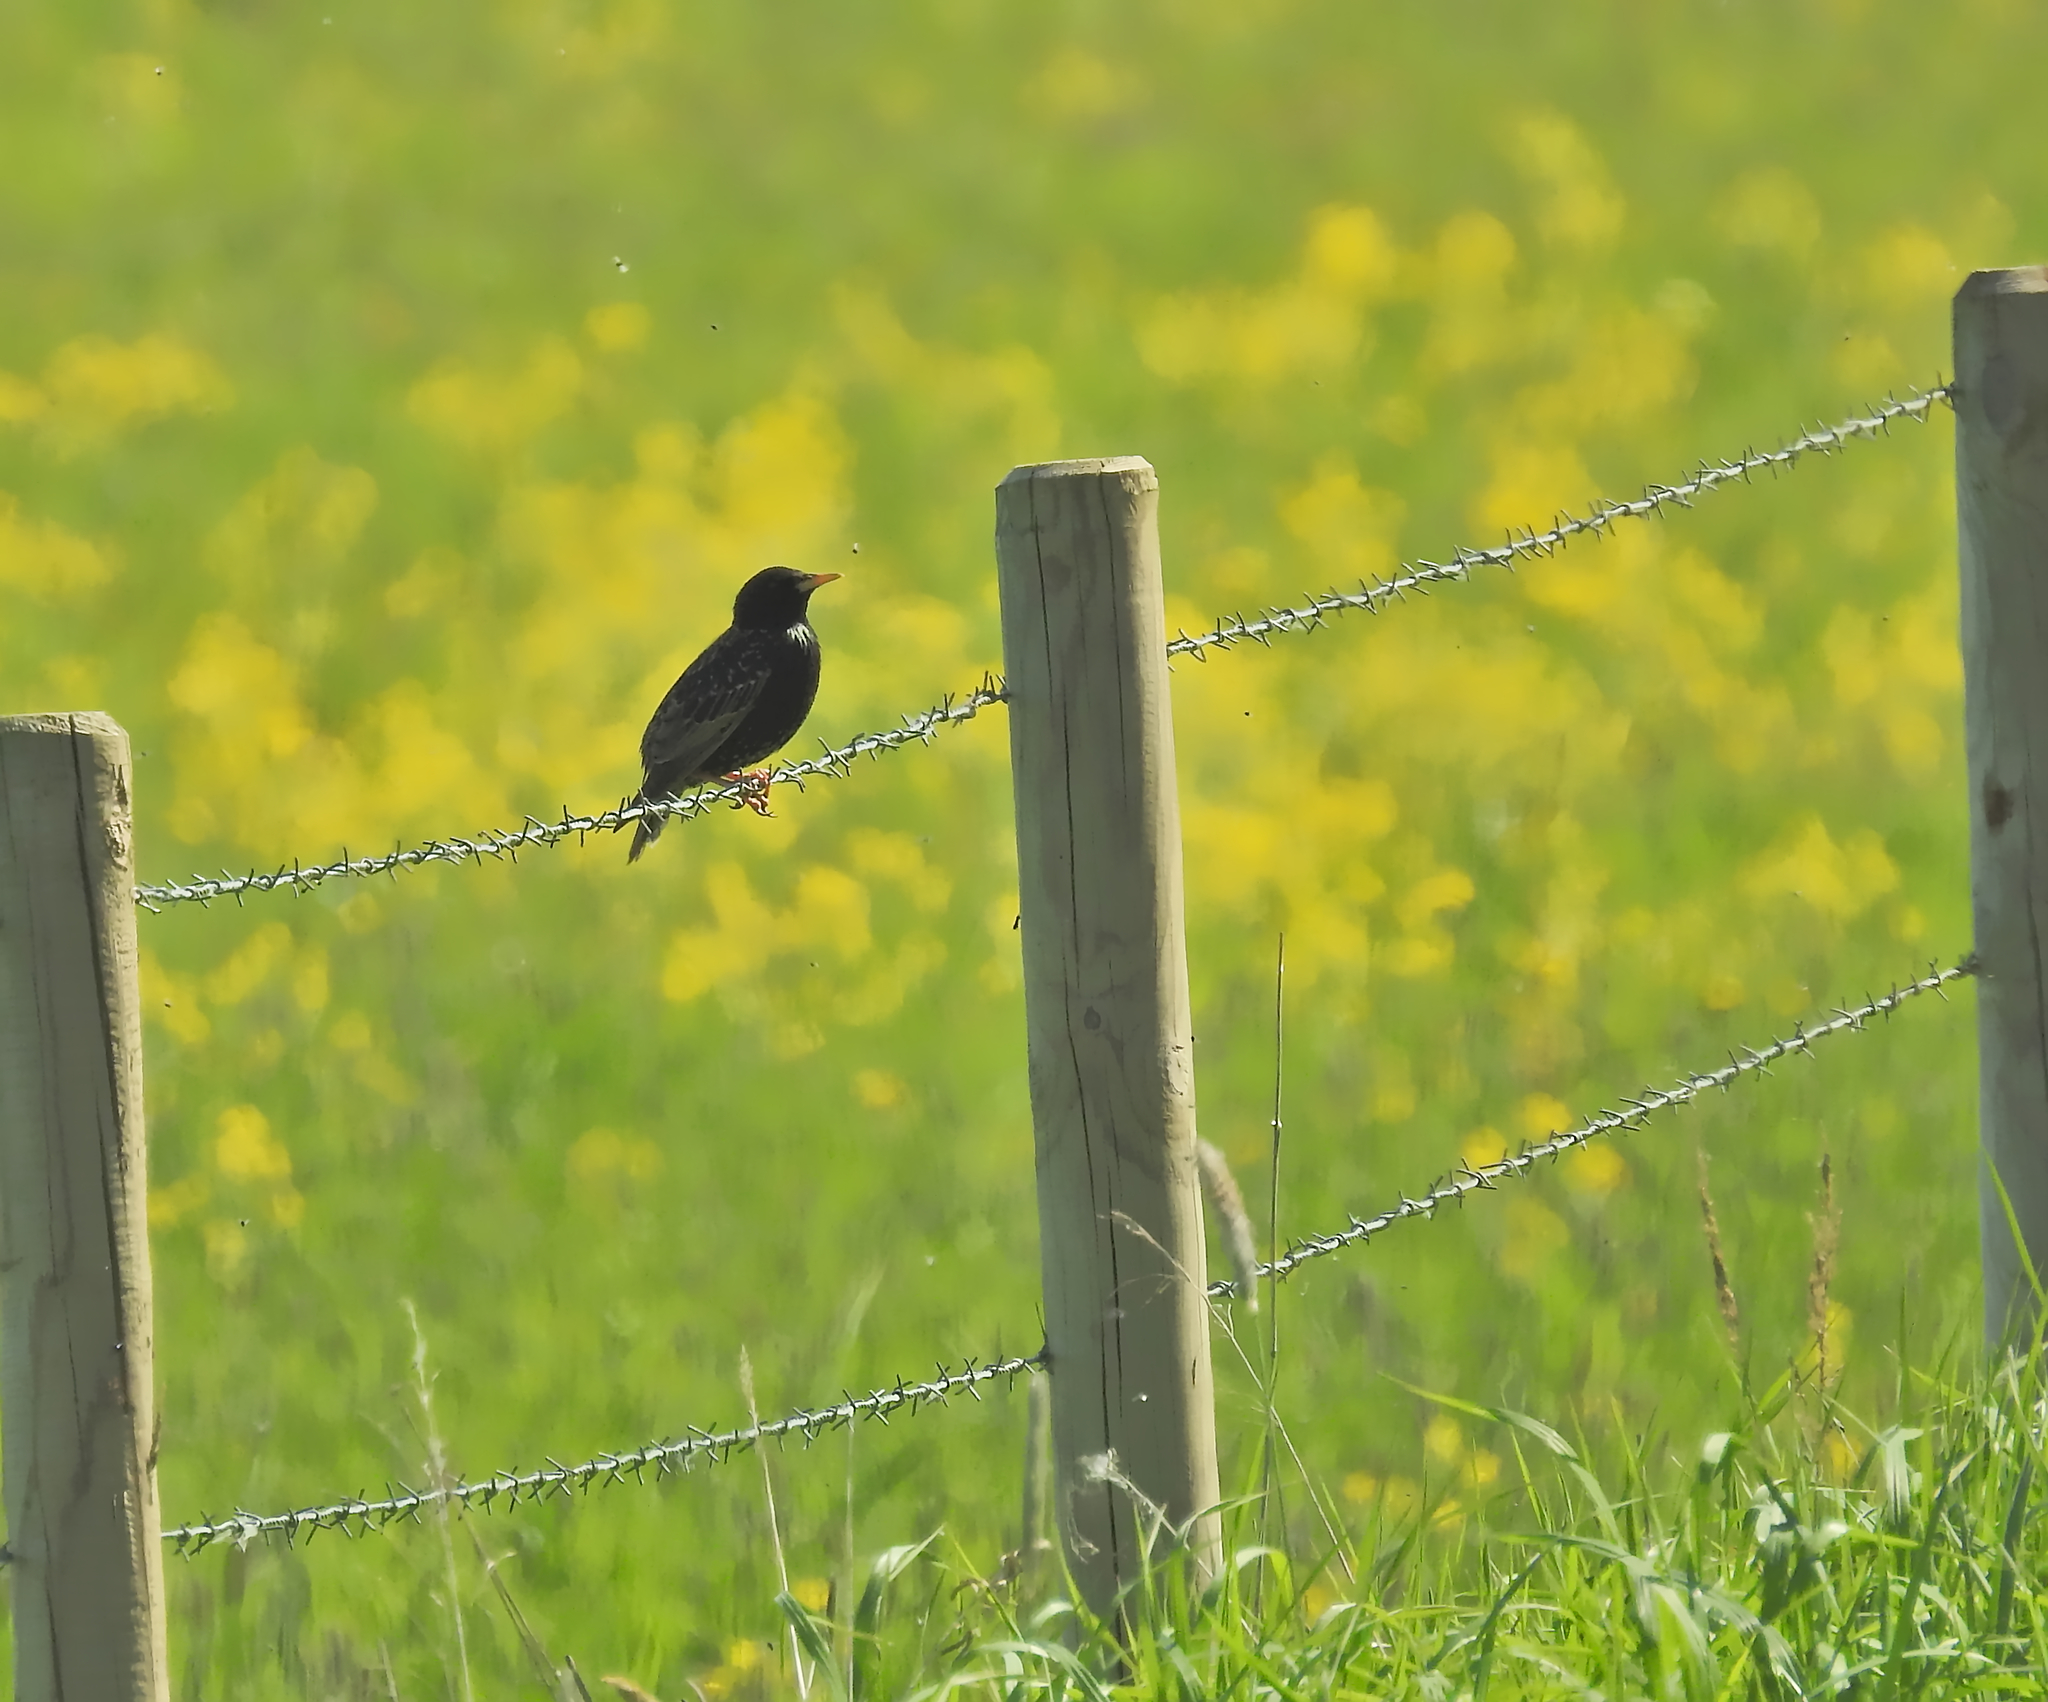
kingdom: Animalia
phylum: Chordata
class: Aves
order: Passeriformes
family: Sturnidae
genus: Sturnus
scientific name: Sturnus vulgaris
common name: Common starling
